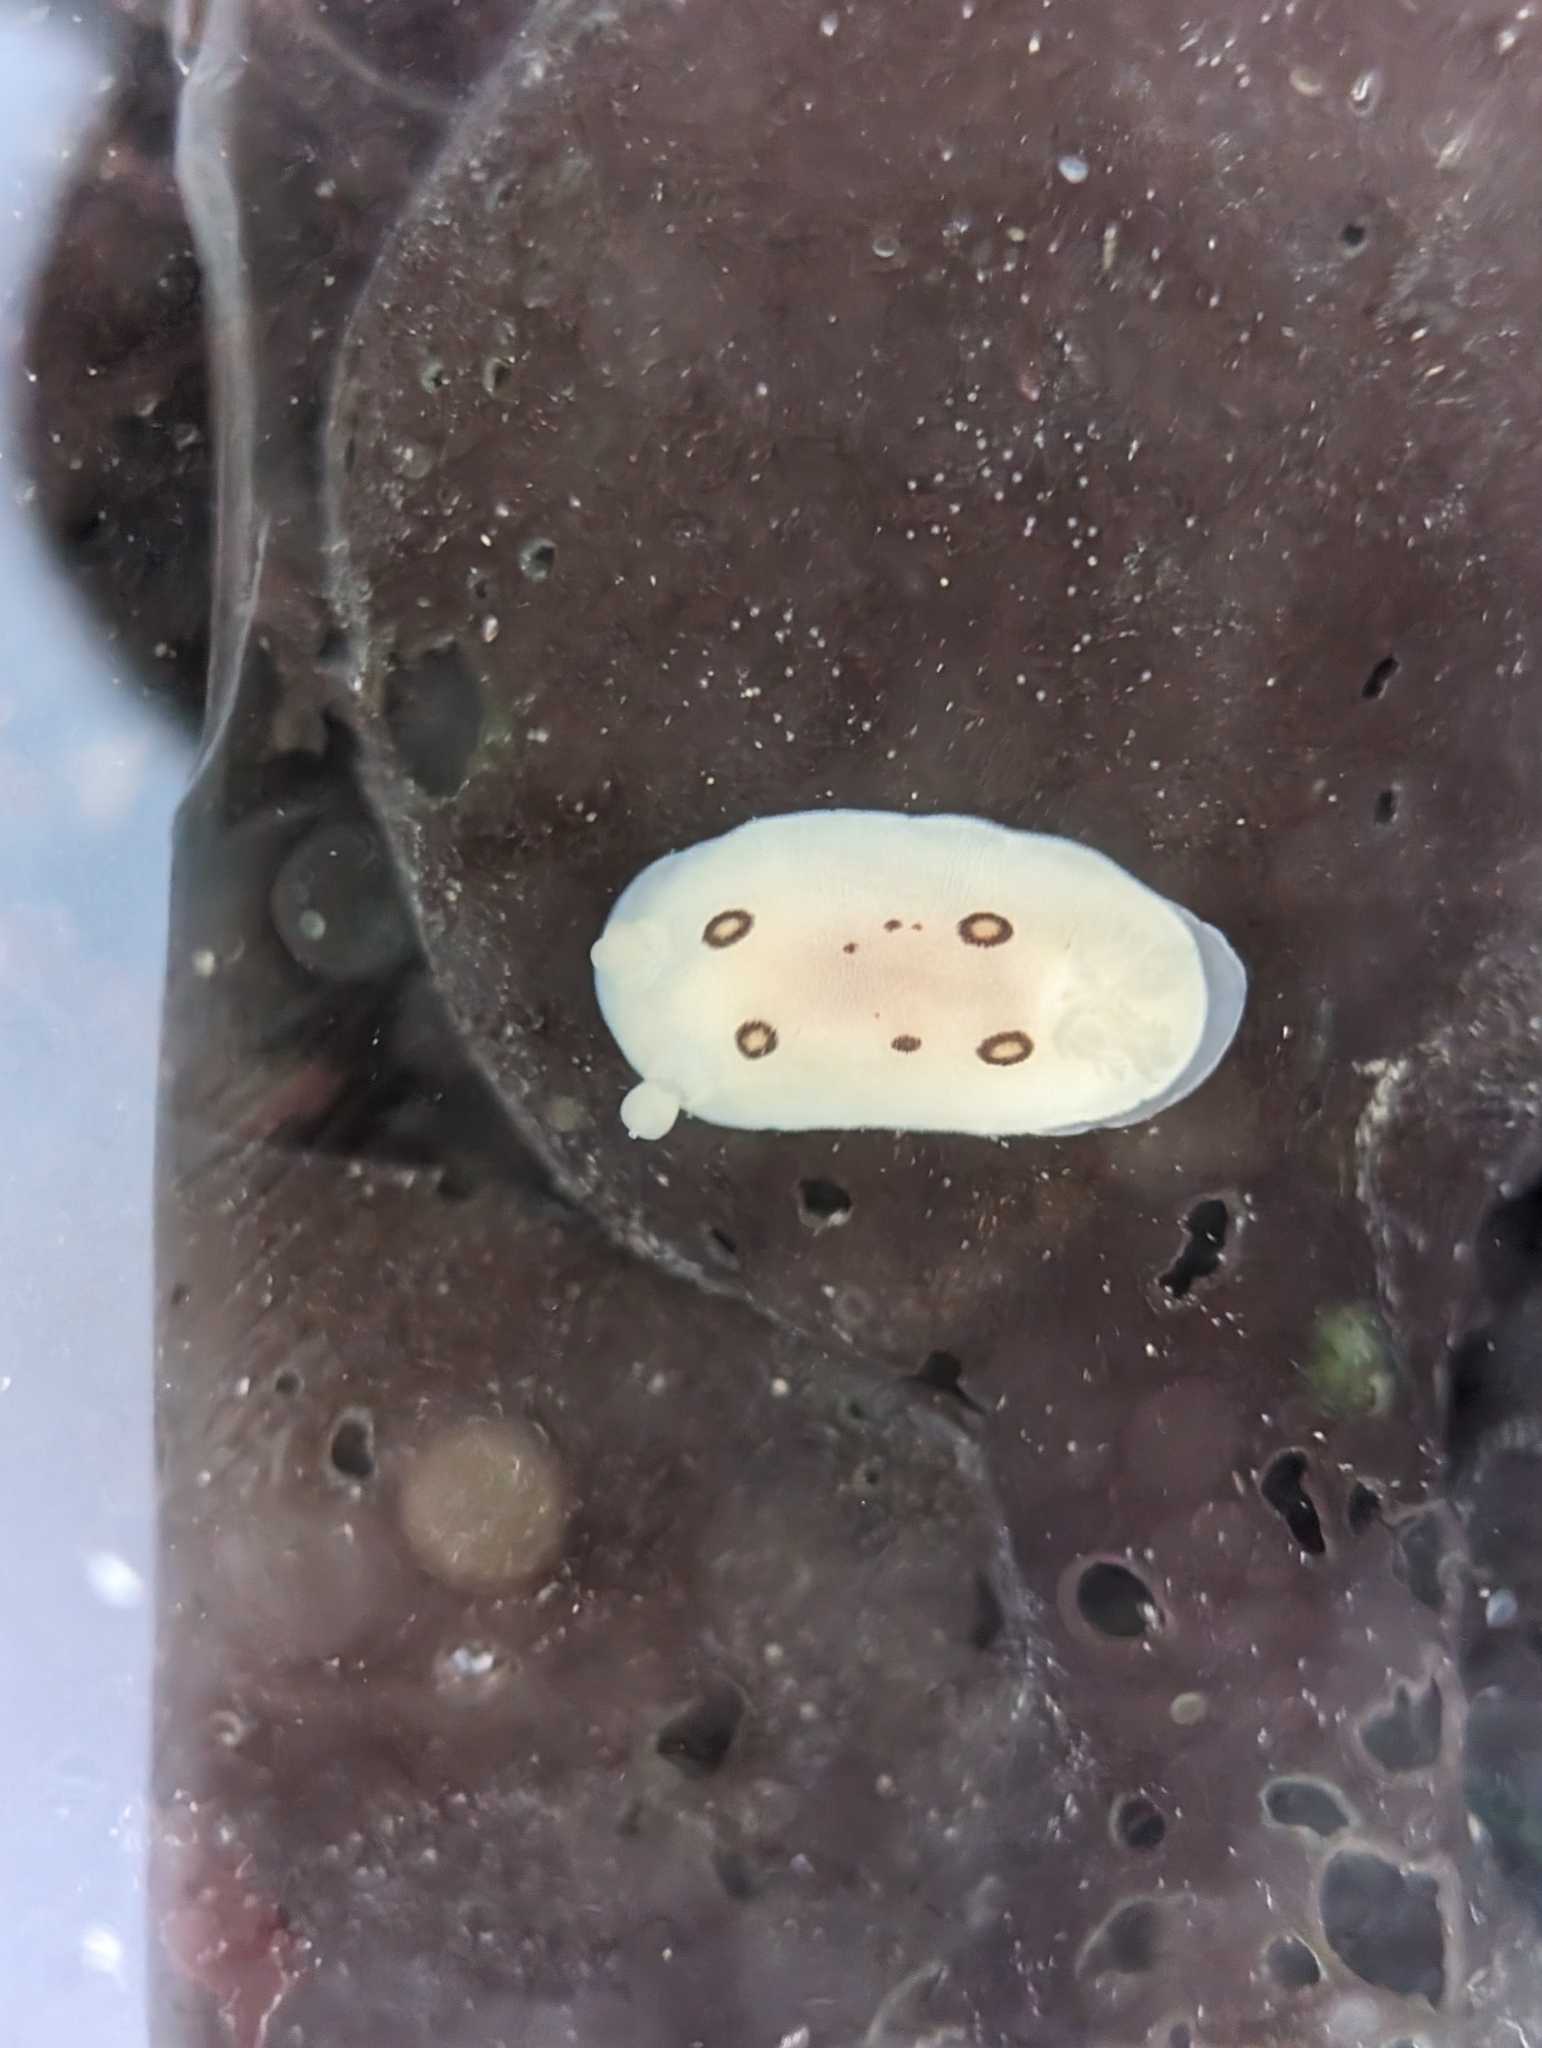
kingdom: Animalia
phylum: Mollusca
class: Gastropoda
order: Nudibranchia
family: Discodorididae
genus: Diaulula
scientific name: Diaulula sandiegensis
